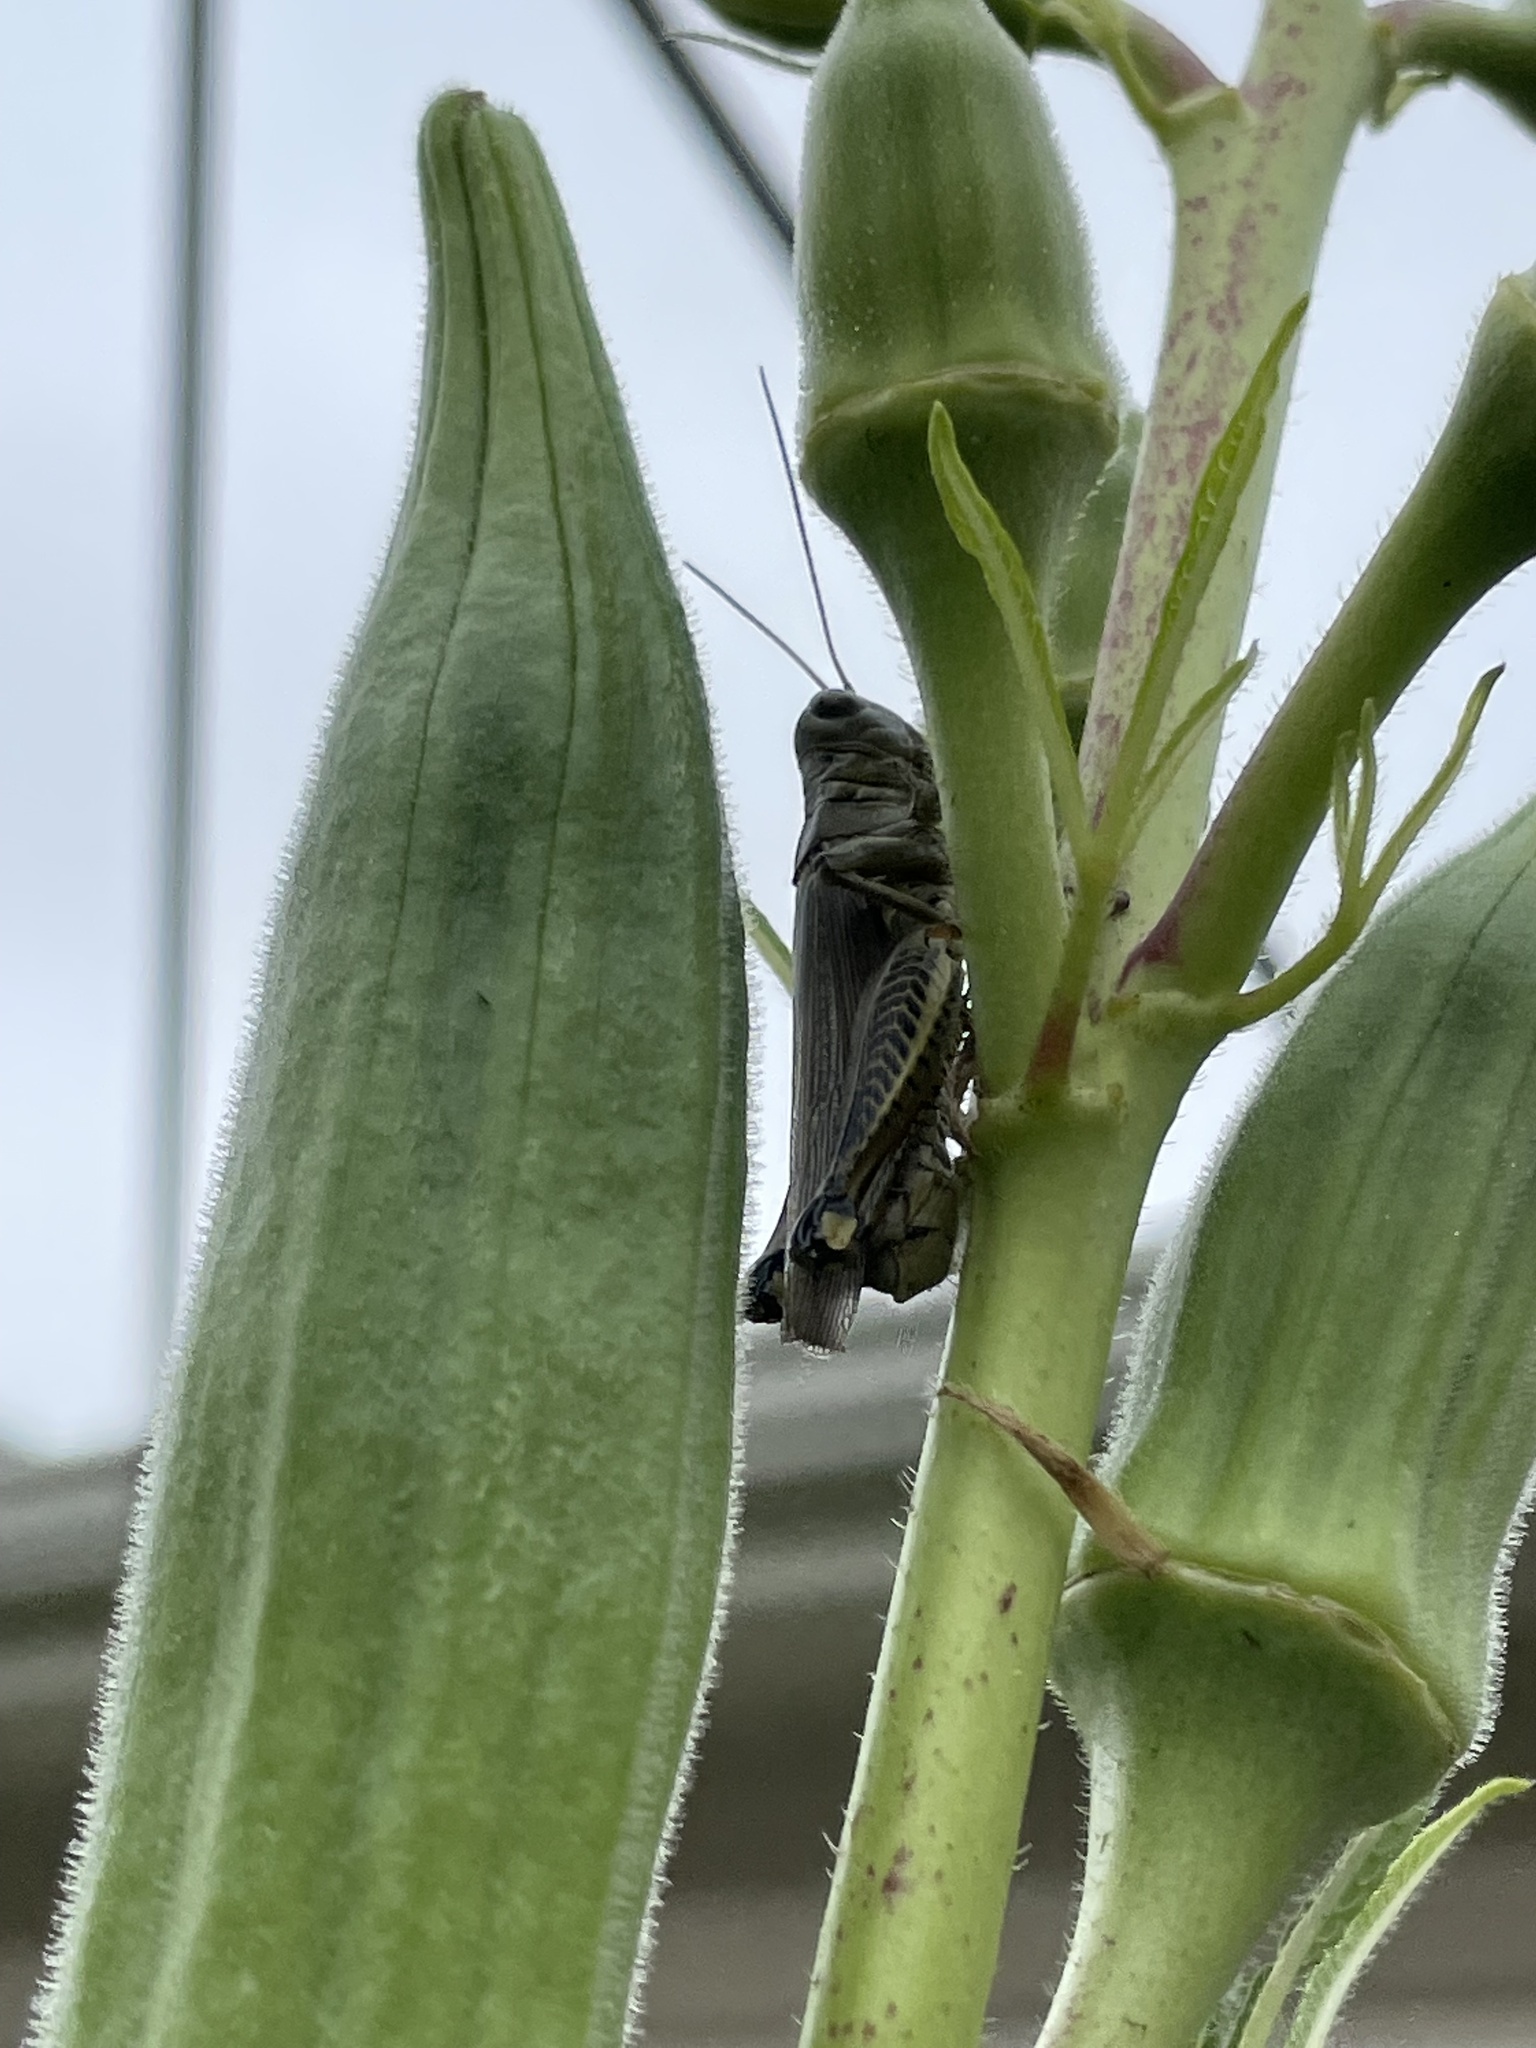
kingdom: Animalia
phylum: Arthropoda
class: Insecta
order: Orthoptera
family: Acrididae
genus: Melanoplus
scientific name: Melanoplus differentialis
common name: Differential grasshopper
